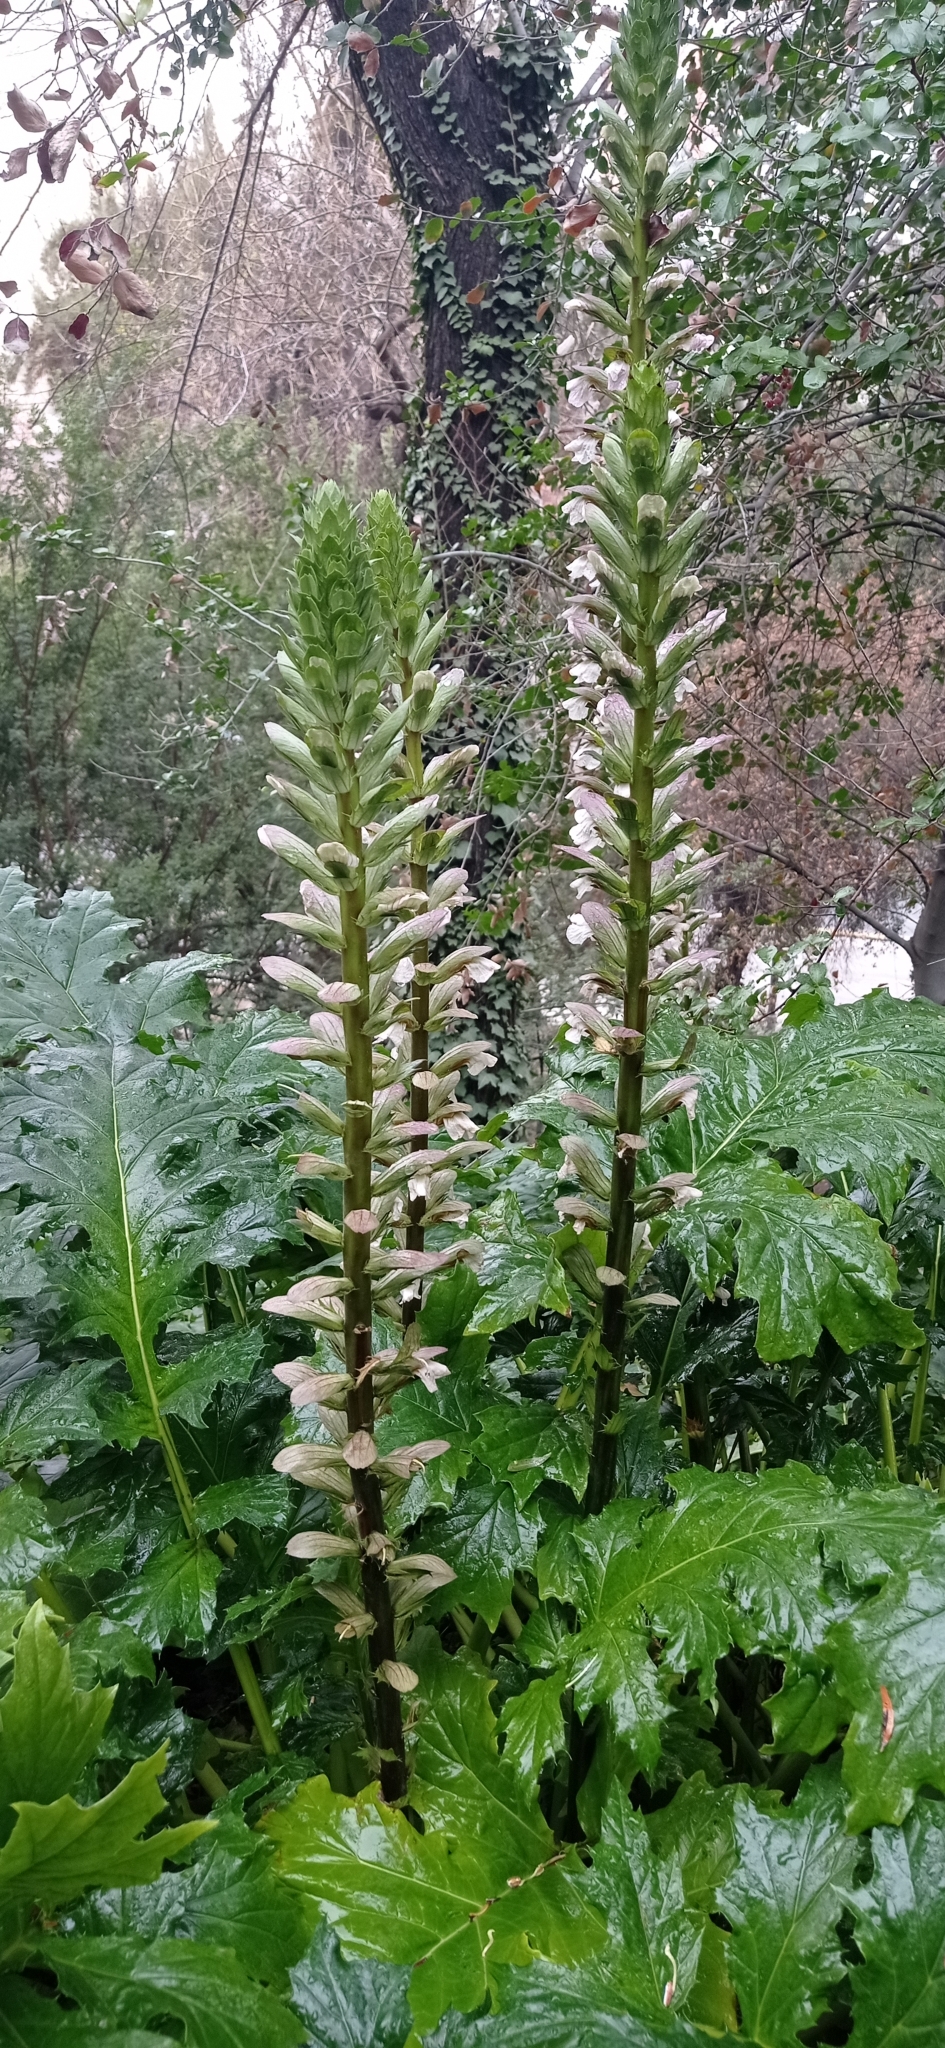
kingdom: Plantae
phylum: Tracheophyta
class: Magnoliopsida
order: Lamiales
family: Acanthaceae
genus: Acanthus
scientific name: Acanthus mollis
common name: Bear's-breech
